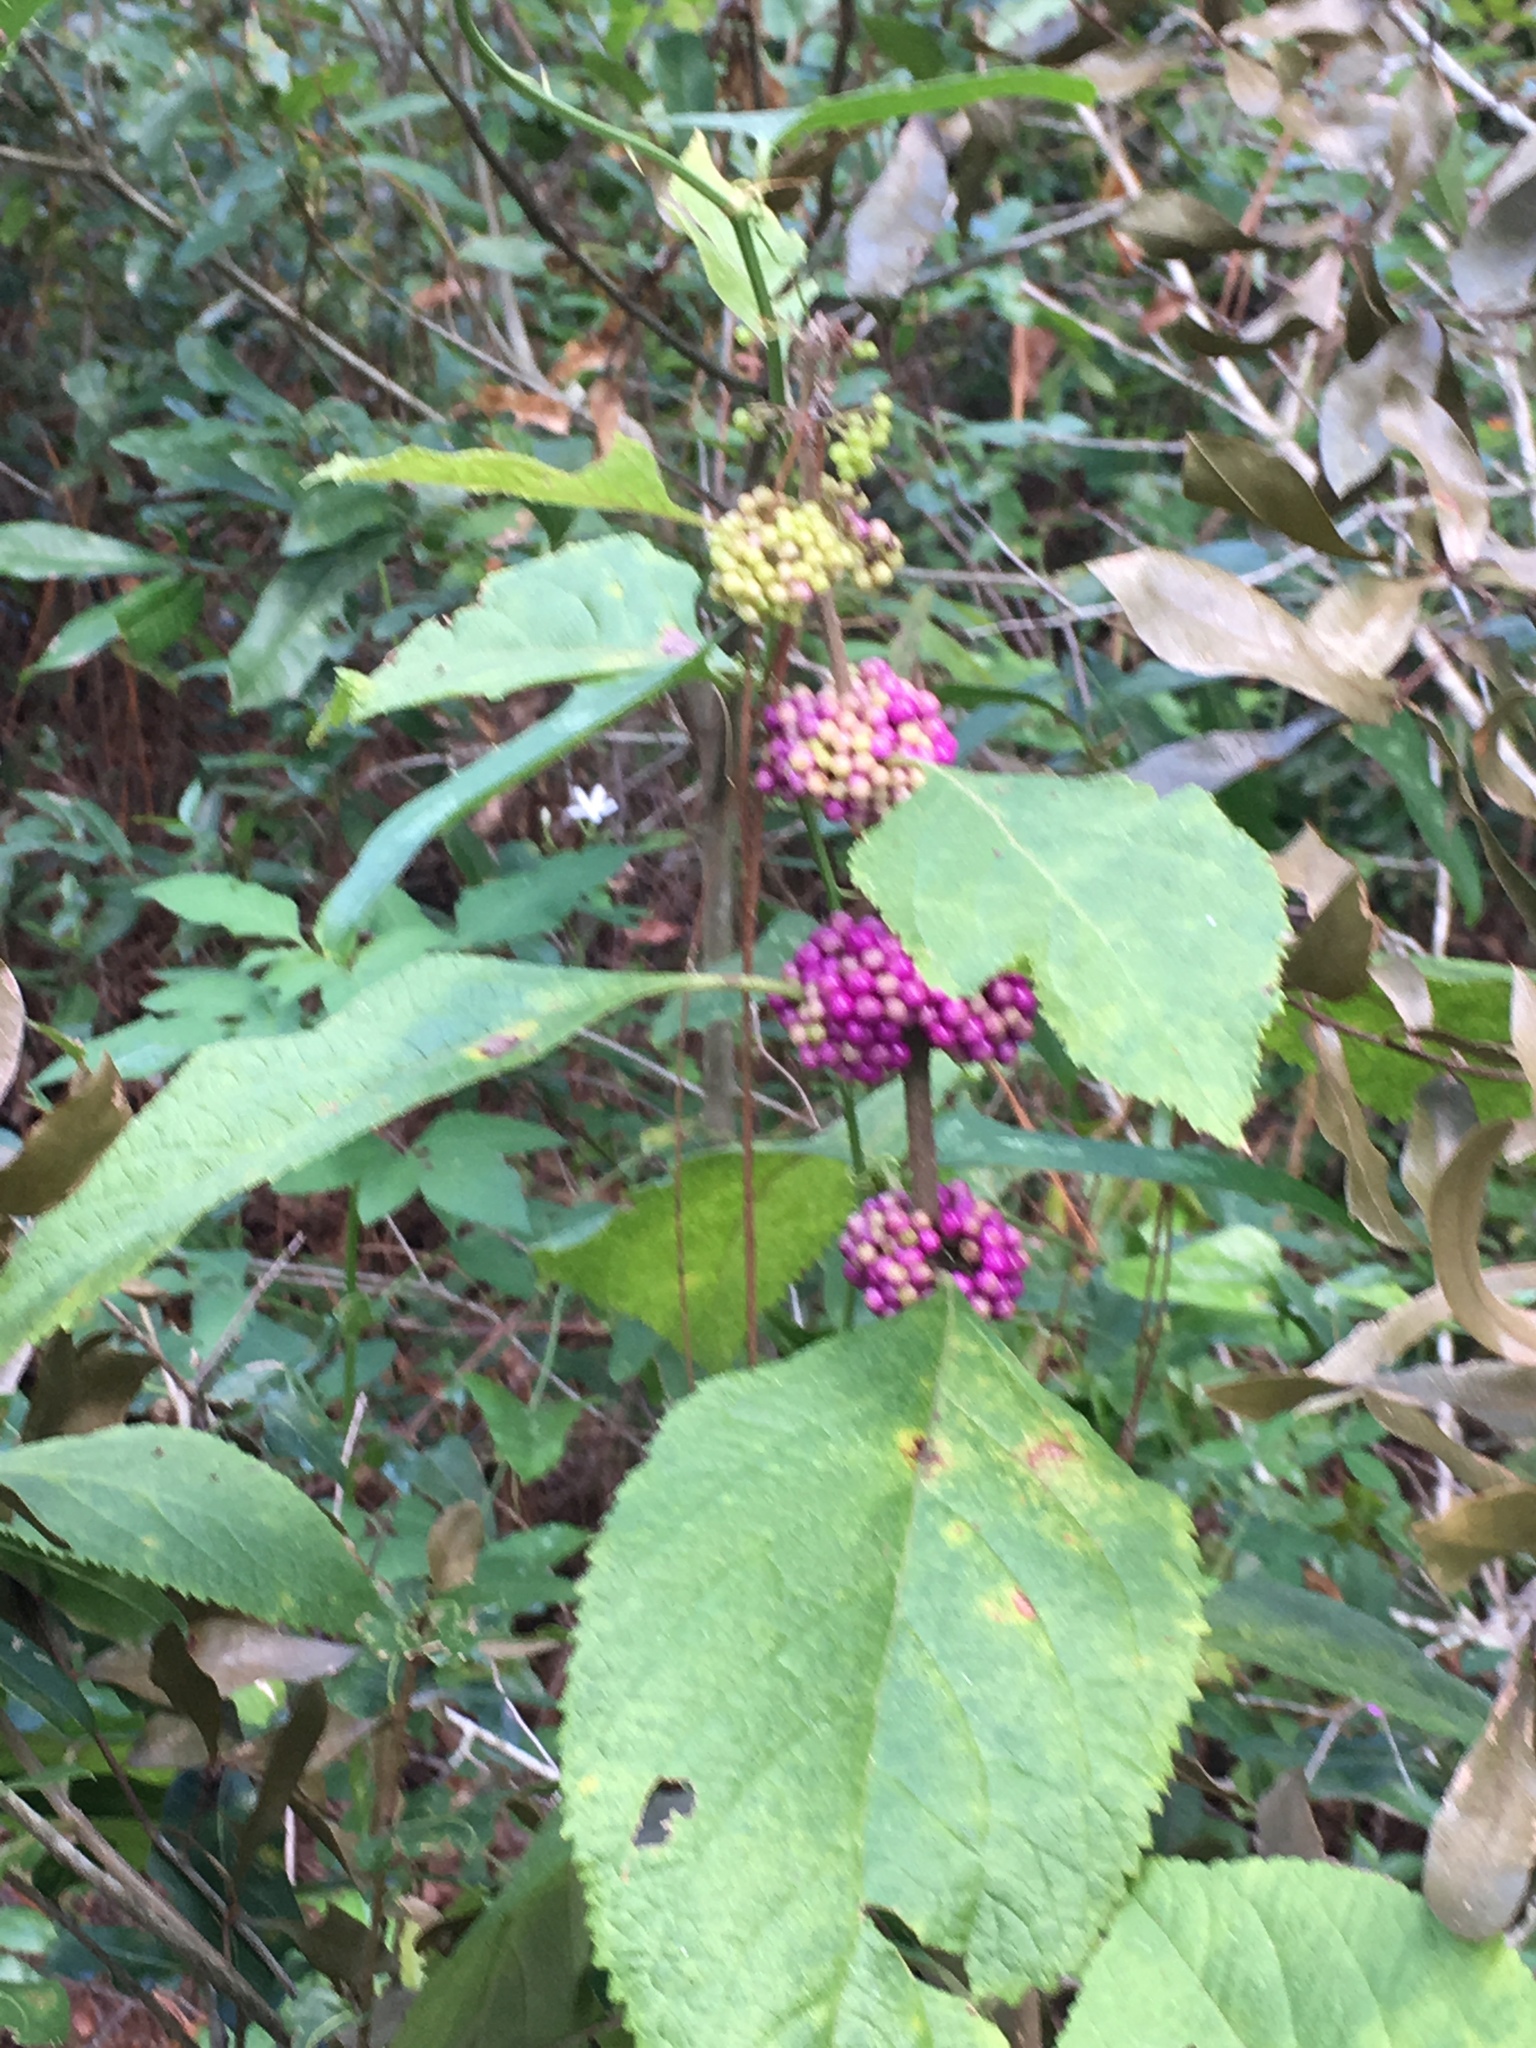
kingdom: Plantae
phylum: Tracheophyta
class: Magnoliopsida
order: Lamiales
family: Lamiaceae
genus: Callicarpa
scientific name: Callicarpa americana
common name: American beautyberry
